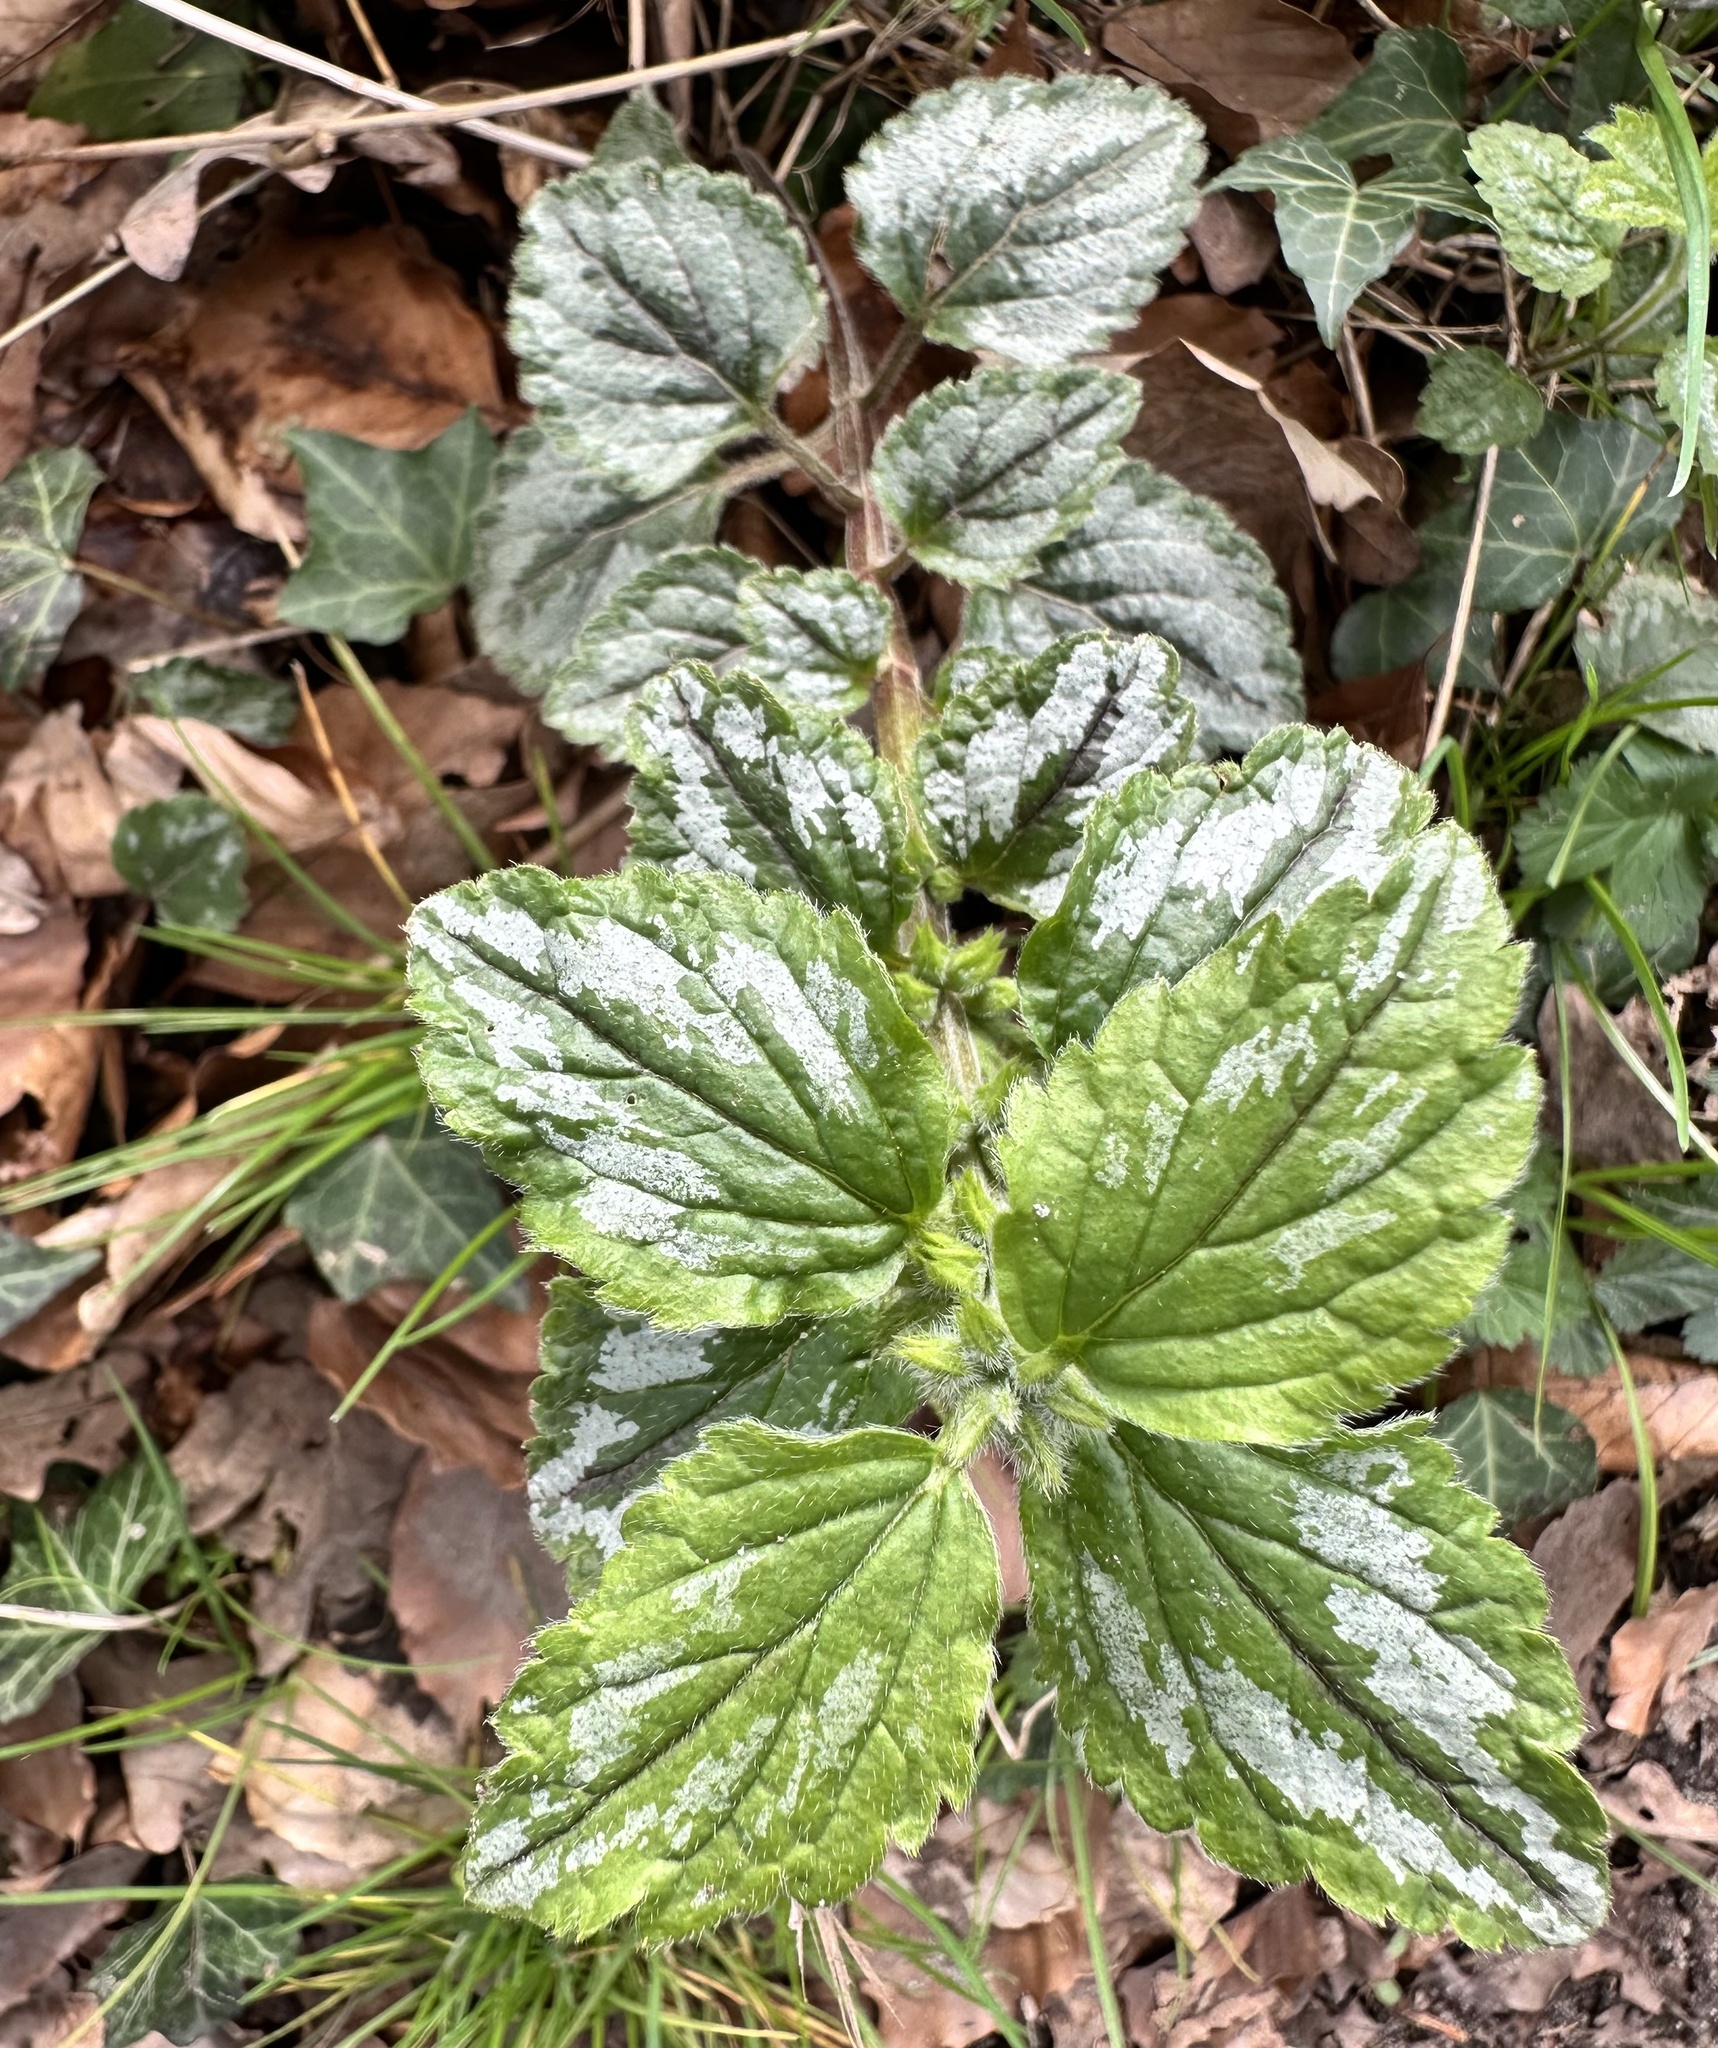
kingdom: Plantae
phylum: Tracheophyta
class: Magnoliopsida
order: Lamiales
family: Lamiaceae
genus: Lamium
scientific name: Lamium galeobdolon
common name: Yellow archangel
